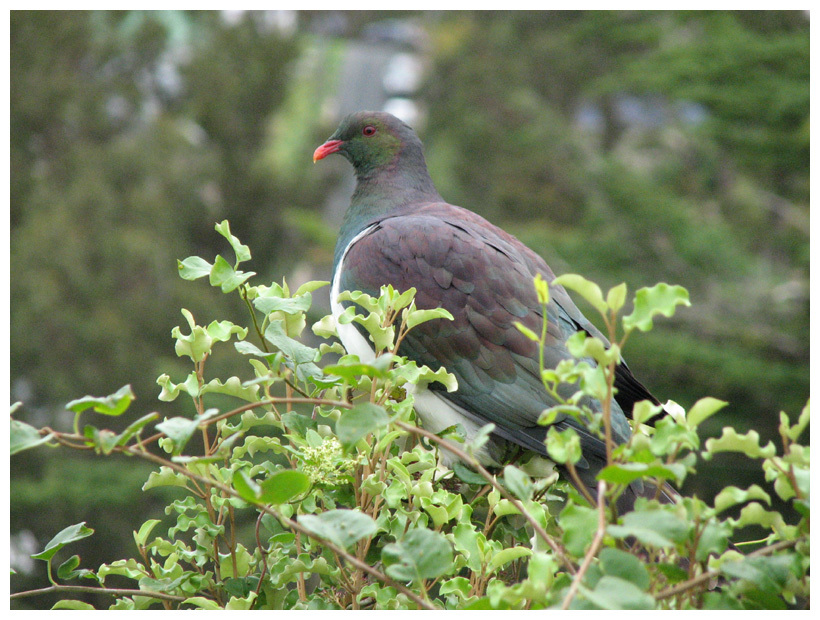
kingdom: Animalia
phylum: Chordata
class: Aves
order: Columbiformes
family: Columbidae
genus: Hemiphaga
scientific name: Hemiphaga novaeseelandiae
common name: New zealand pigeon
